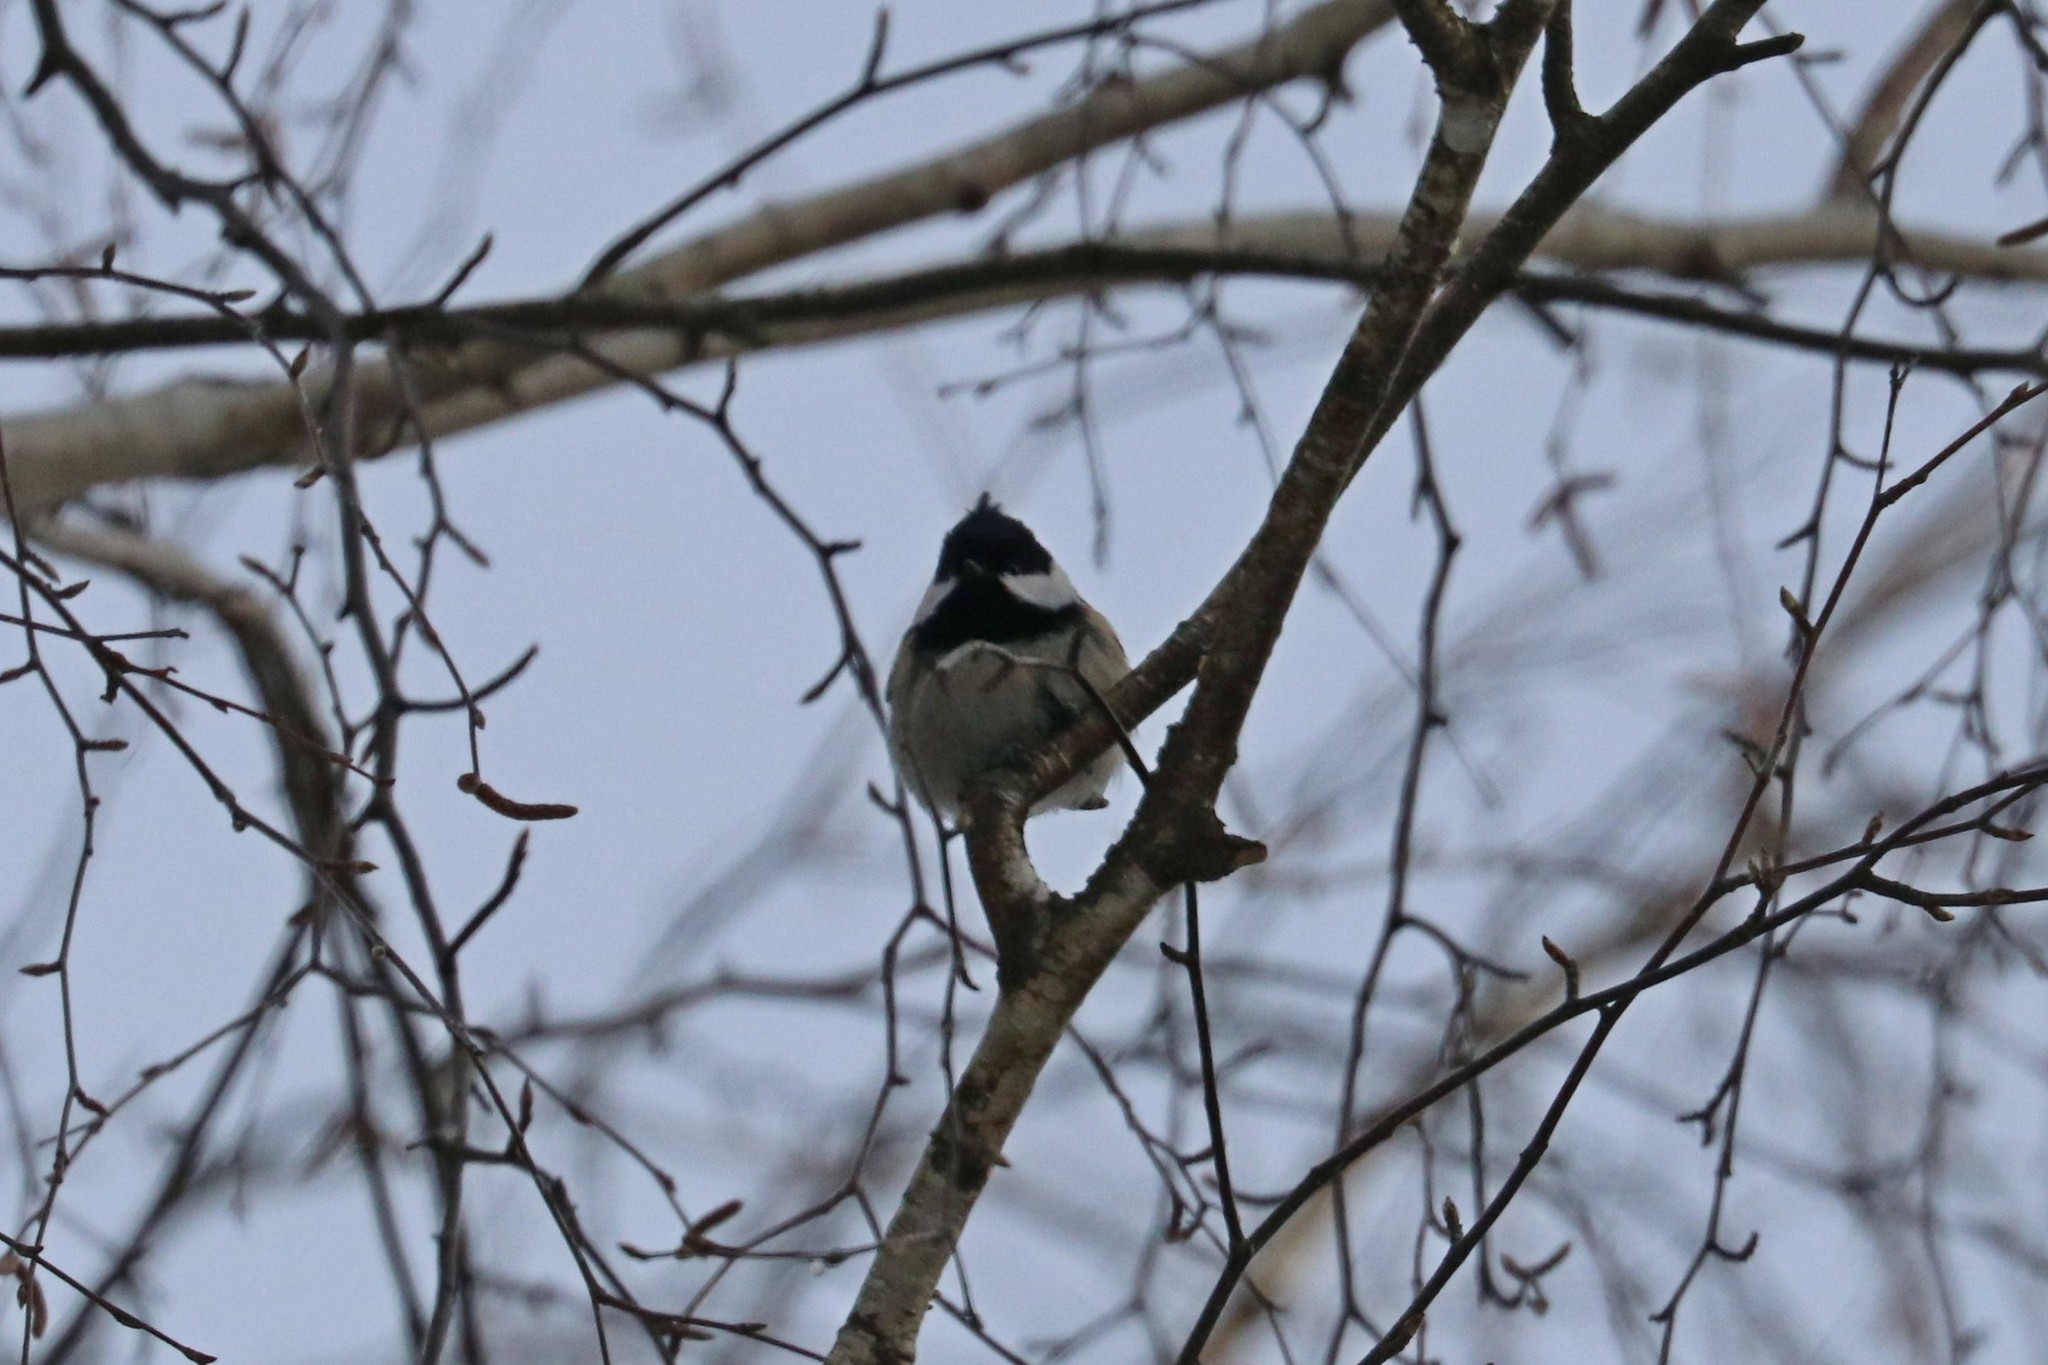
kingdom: Animalia
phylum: Chordata
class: Aves
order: Passeriformes
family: Paridae
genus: Periparus
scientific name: Periparus ater
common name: Coal tit
